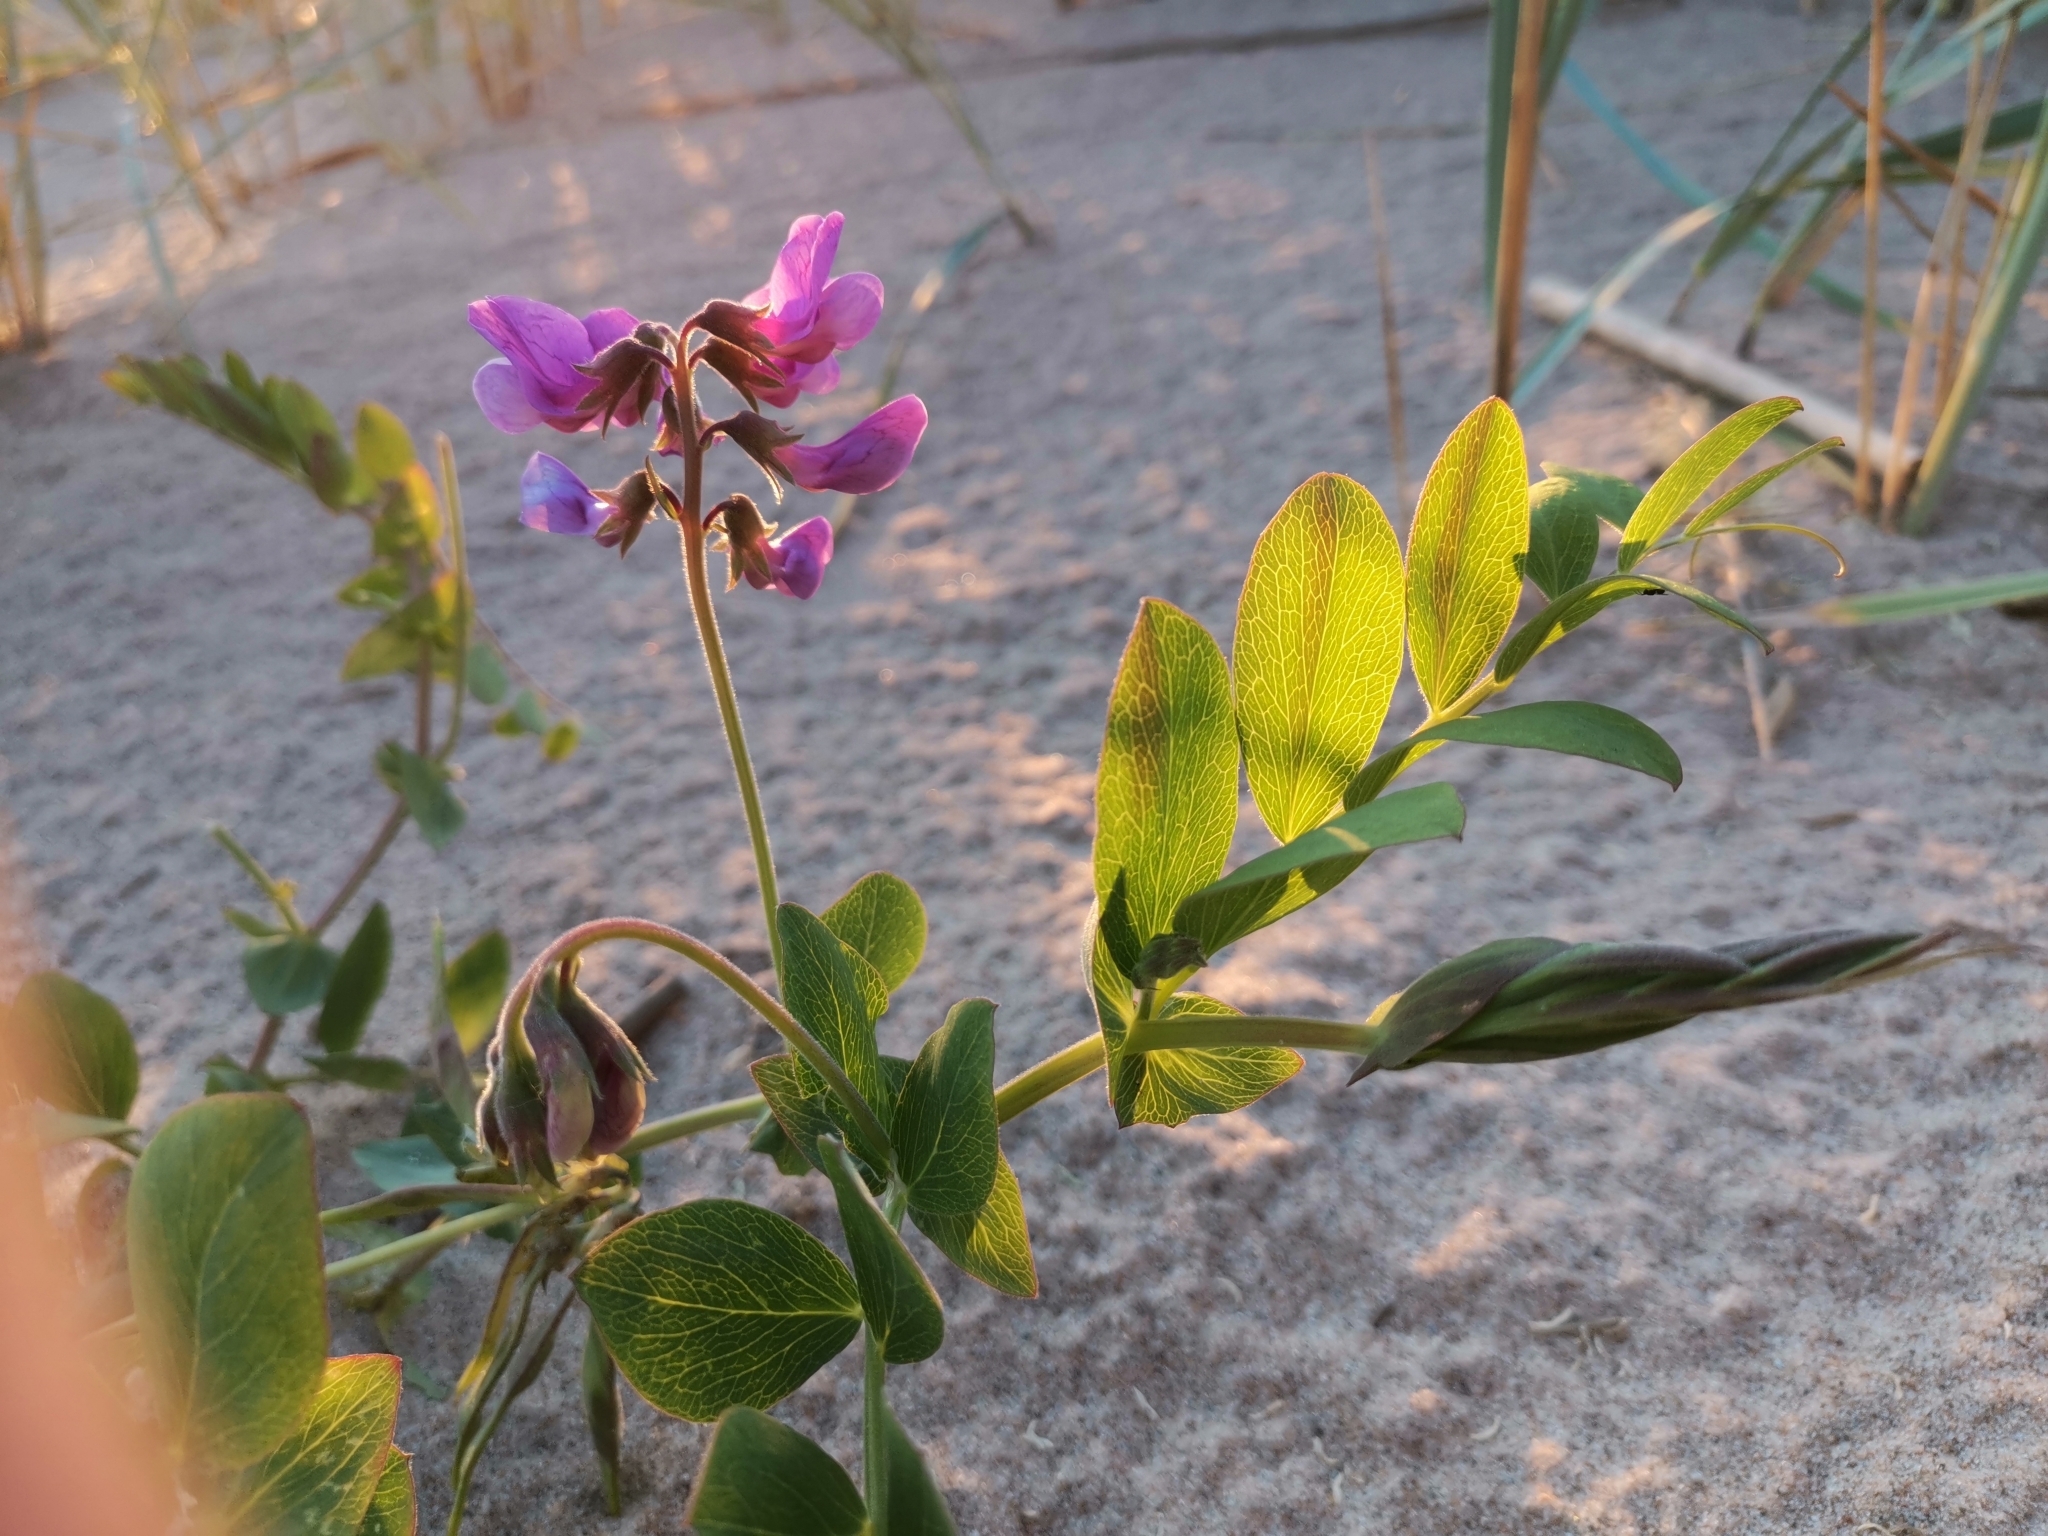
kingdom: Plantae
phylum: Tracheophyta
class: Magnoliopsida
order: Fabales
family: Fabaceae
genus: Lathyrus
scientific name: Lathyrus japonicus
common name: Sea pea
